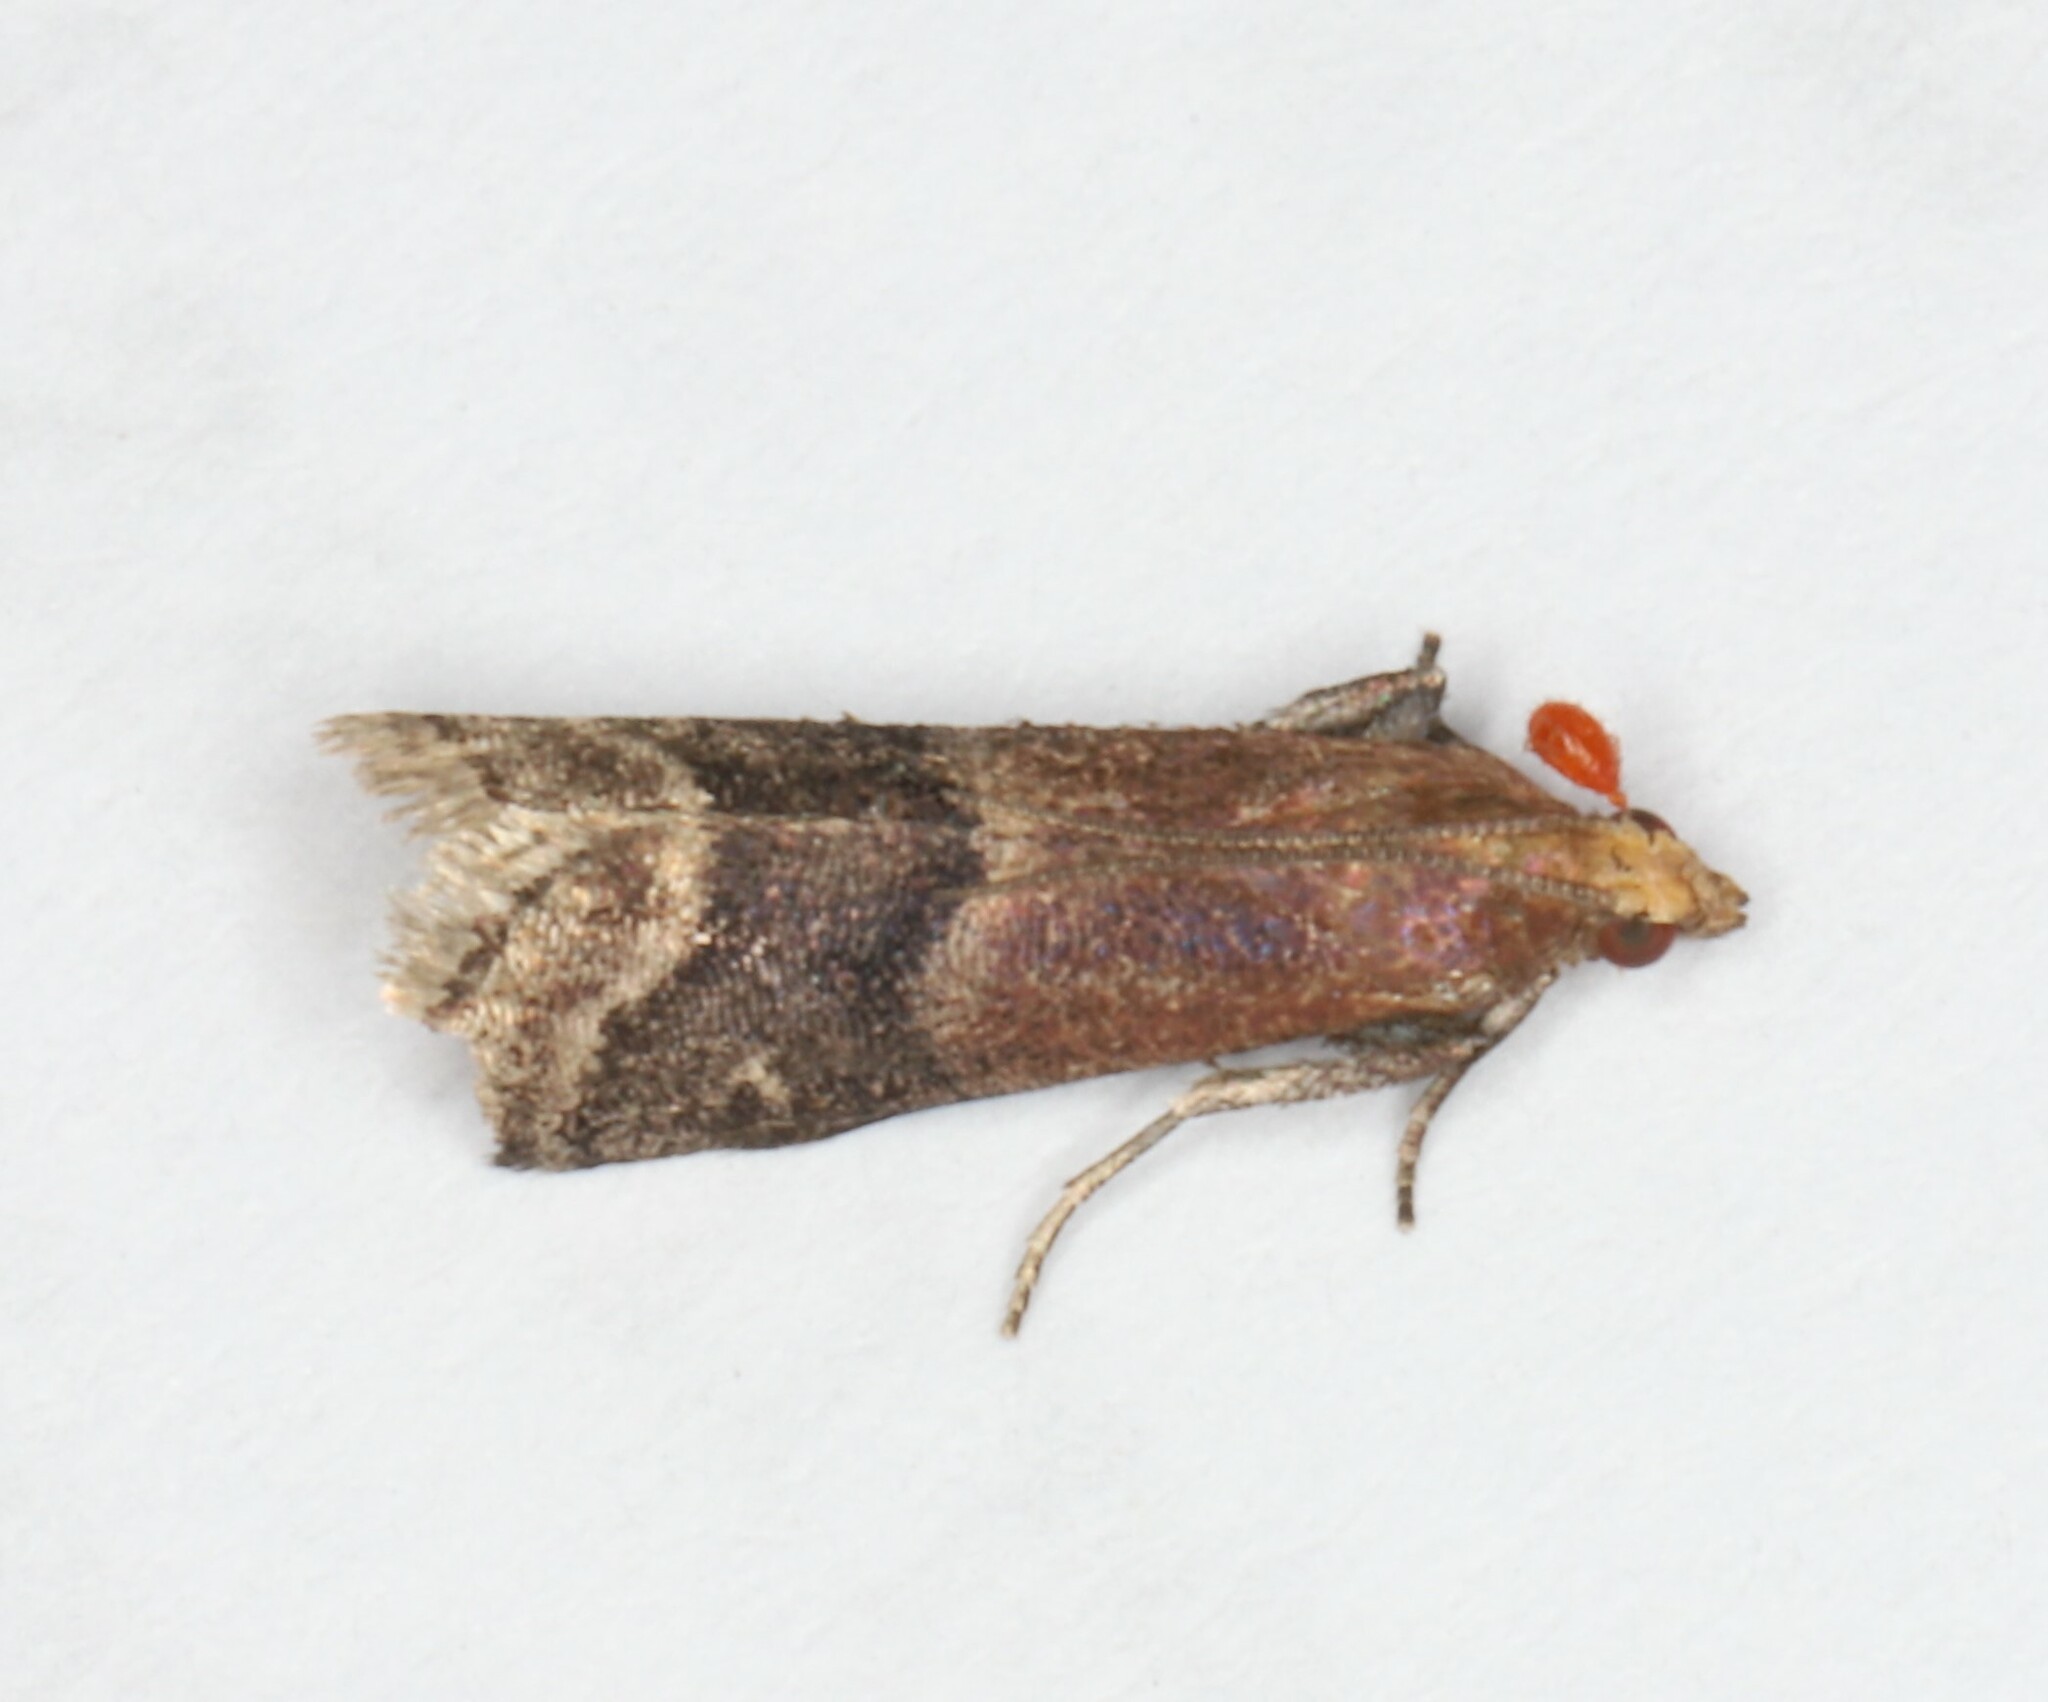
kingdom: Animalia
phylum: Arthropoda
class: Insecta
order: Lepidoptera
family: Pyralidae
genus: Eulogia
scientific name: Eulogia ochrifrontella
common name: Broad-banded eulogia moth
